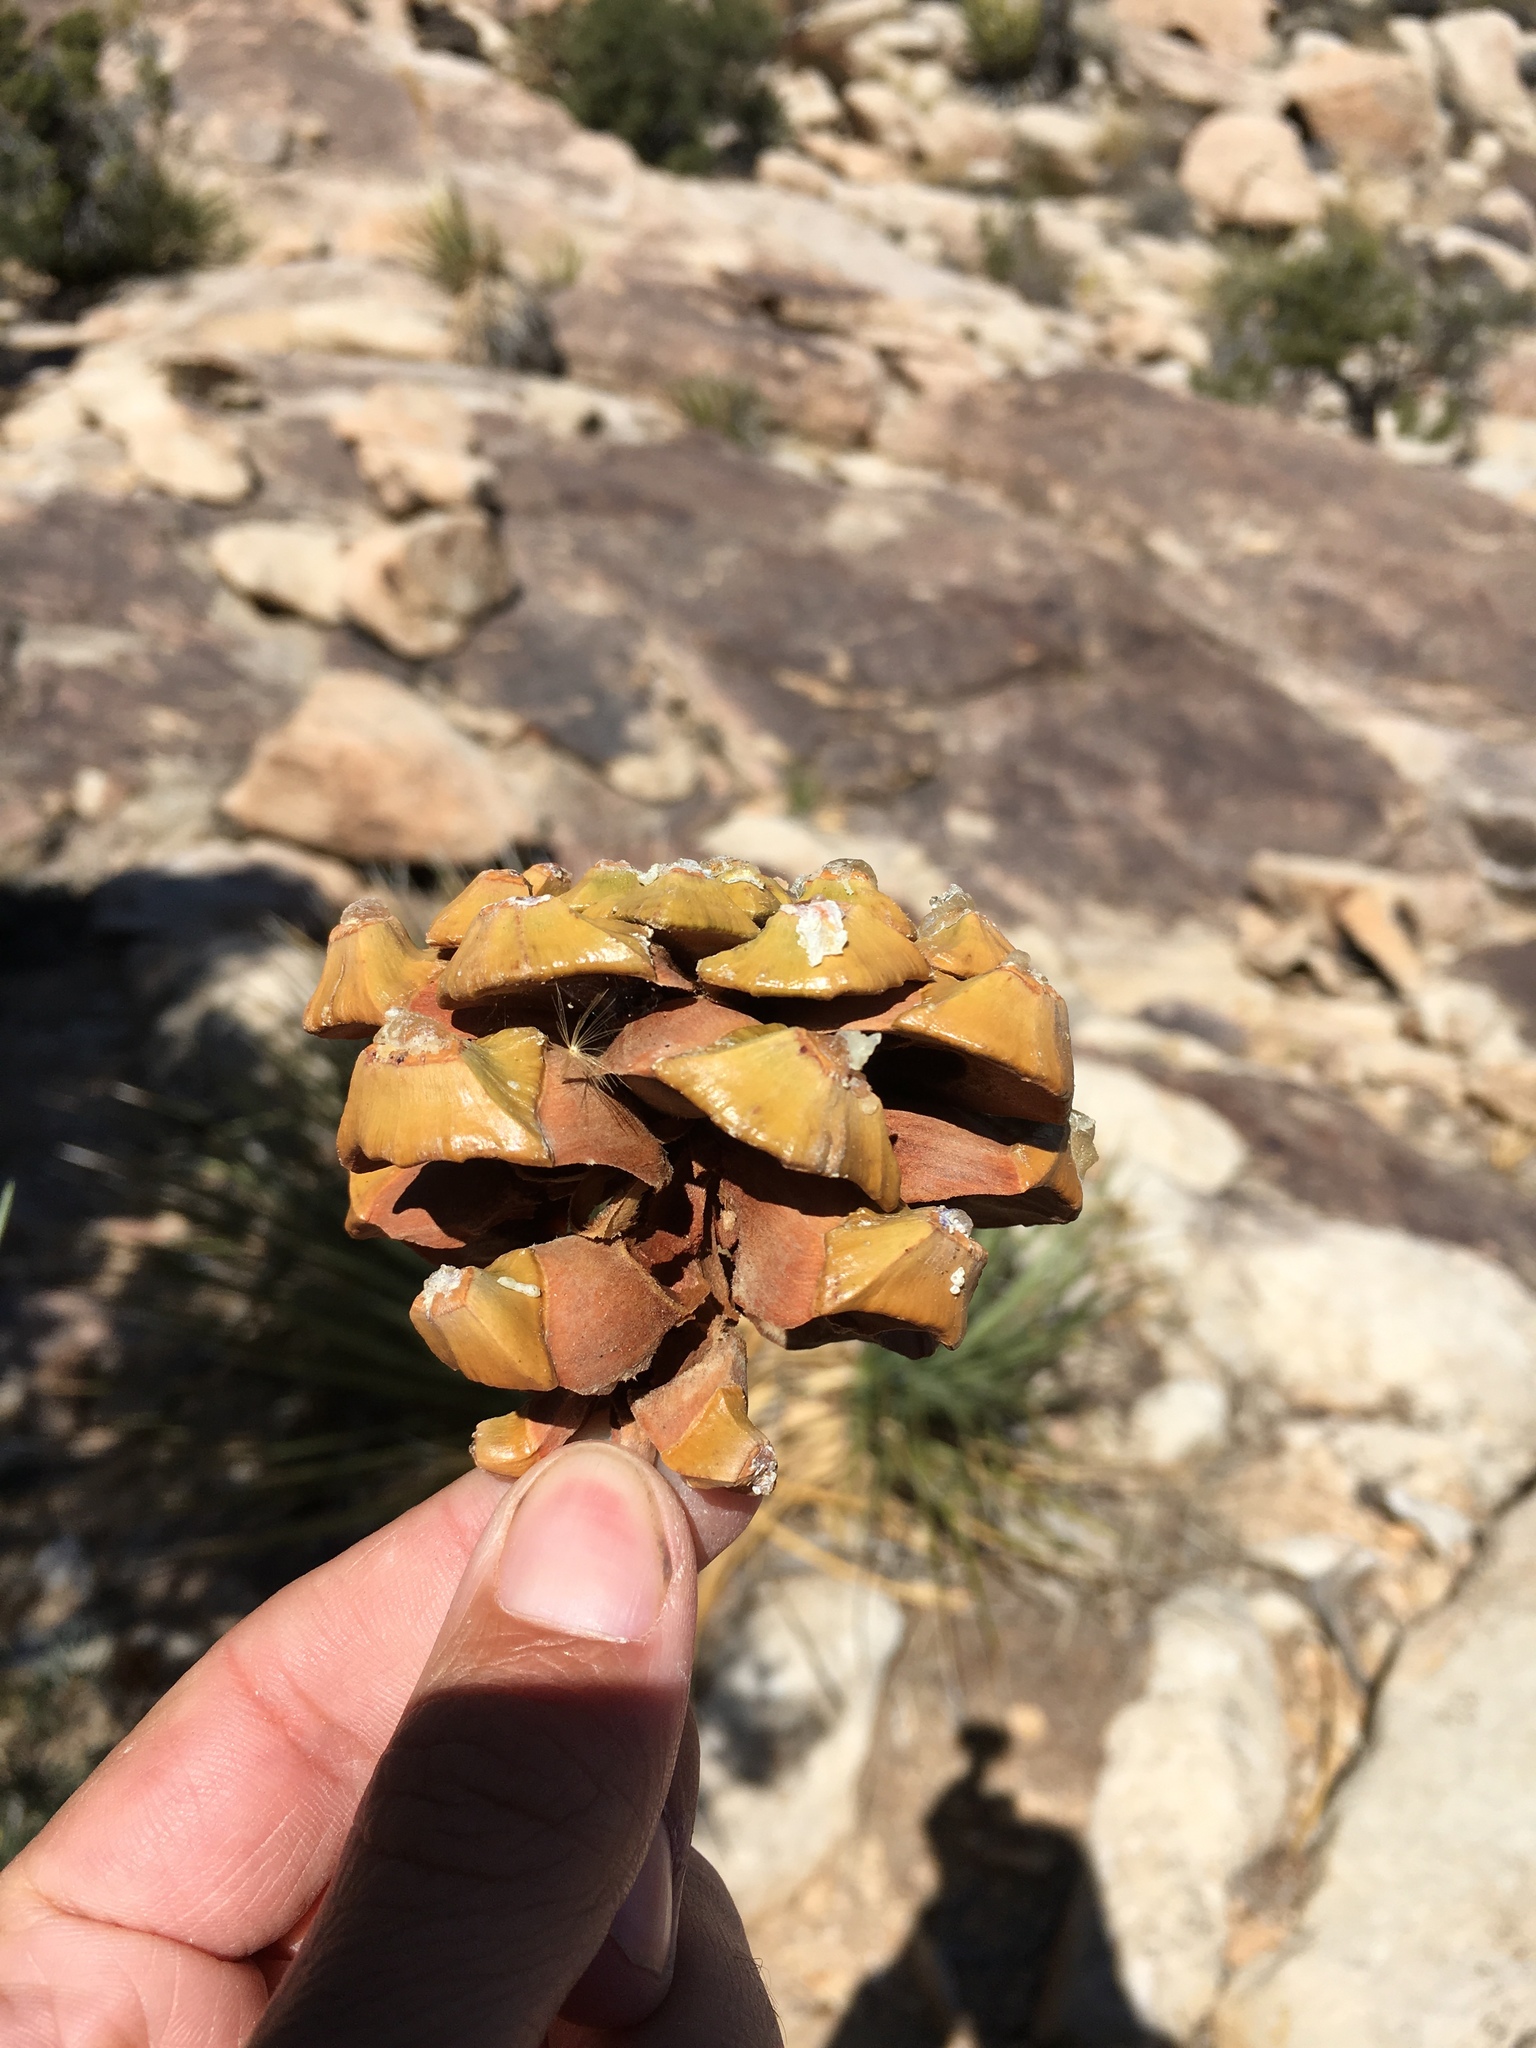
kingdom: Plantae
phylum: Tracheophyta
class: Pinopsida
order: Pinales
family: Pinaceae
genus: Pinus
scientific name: Pinus monophylla
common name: One-leaved nut pine
